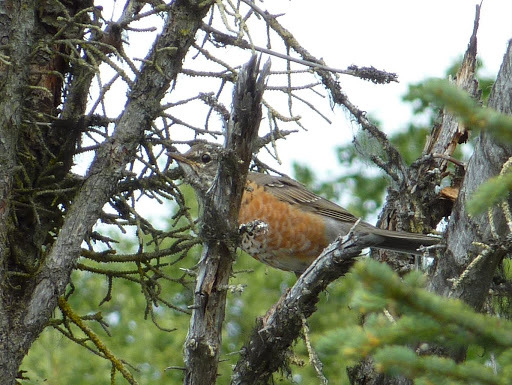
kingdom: Animalia
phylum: Chordata
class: Aves
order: Passeriformes
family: Turdidae
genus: Turdus
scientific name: Turdus migratorius
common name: American robin
